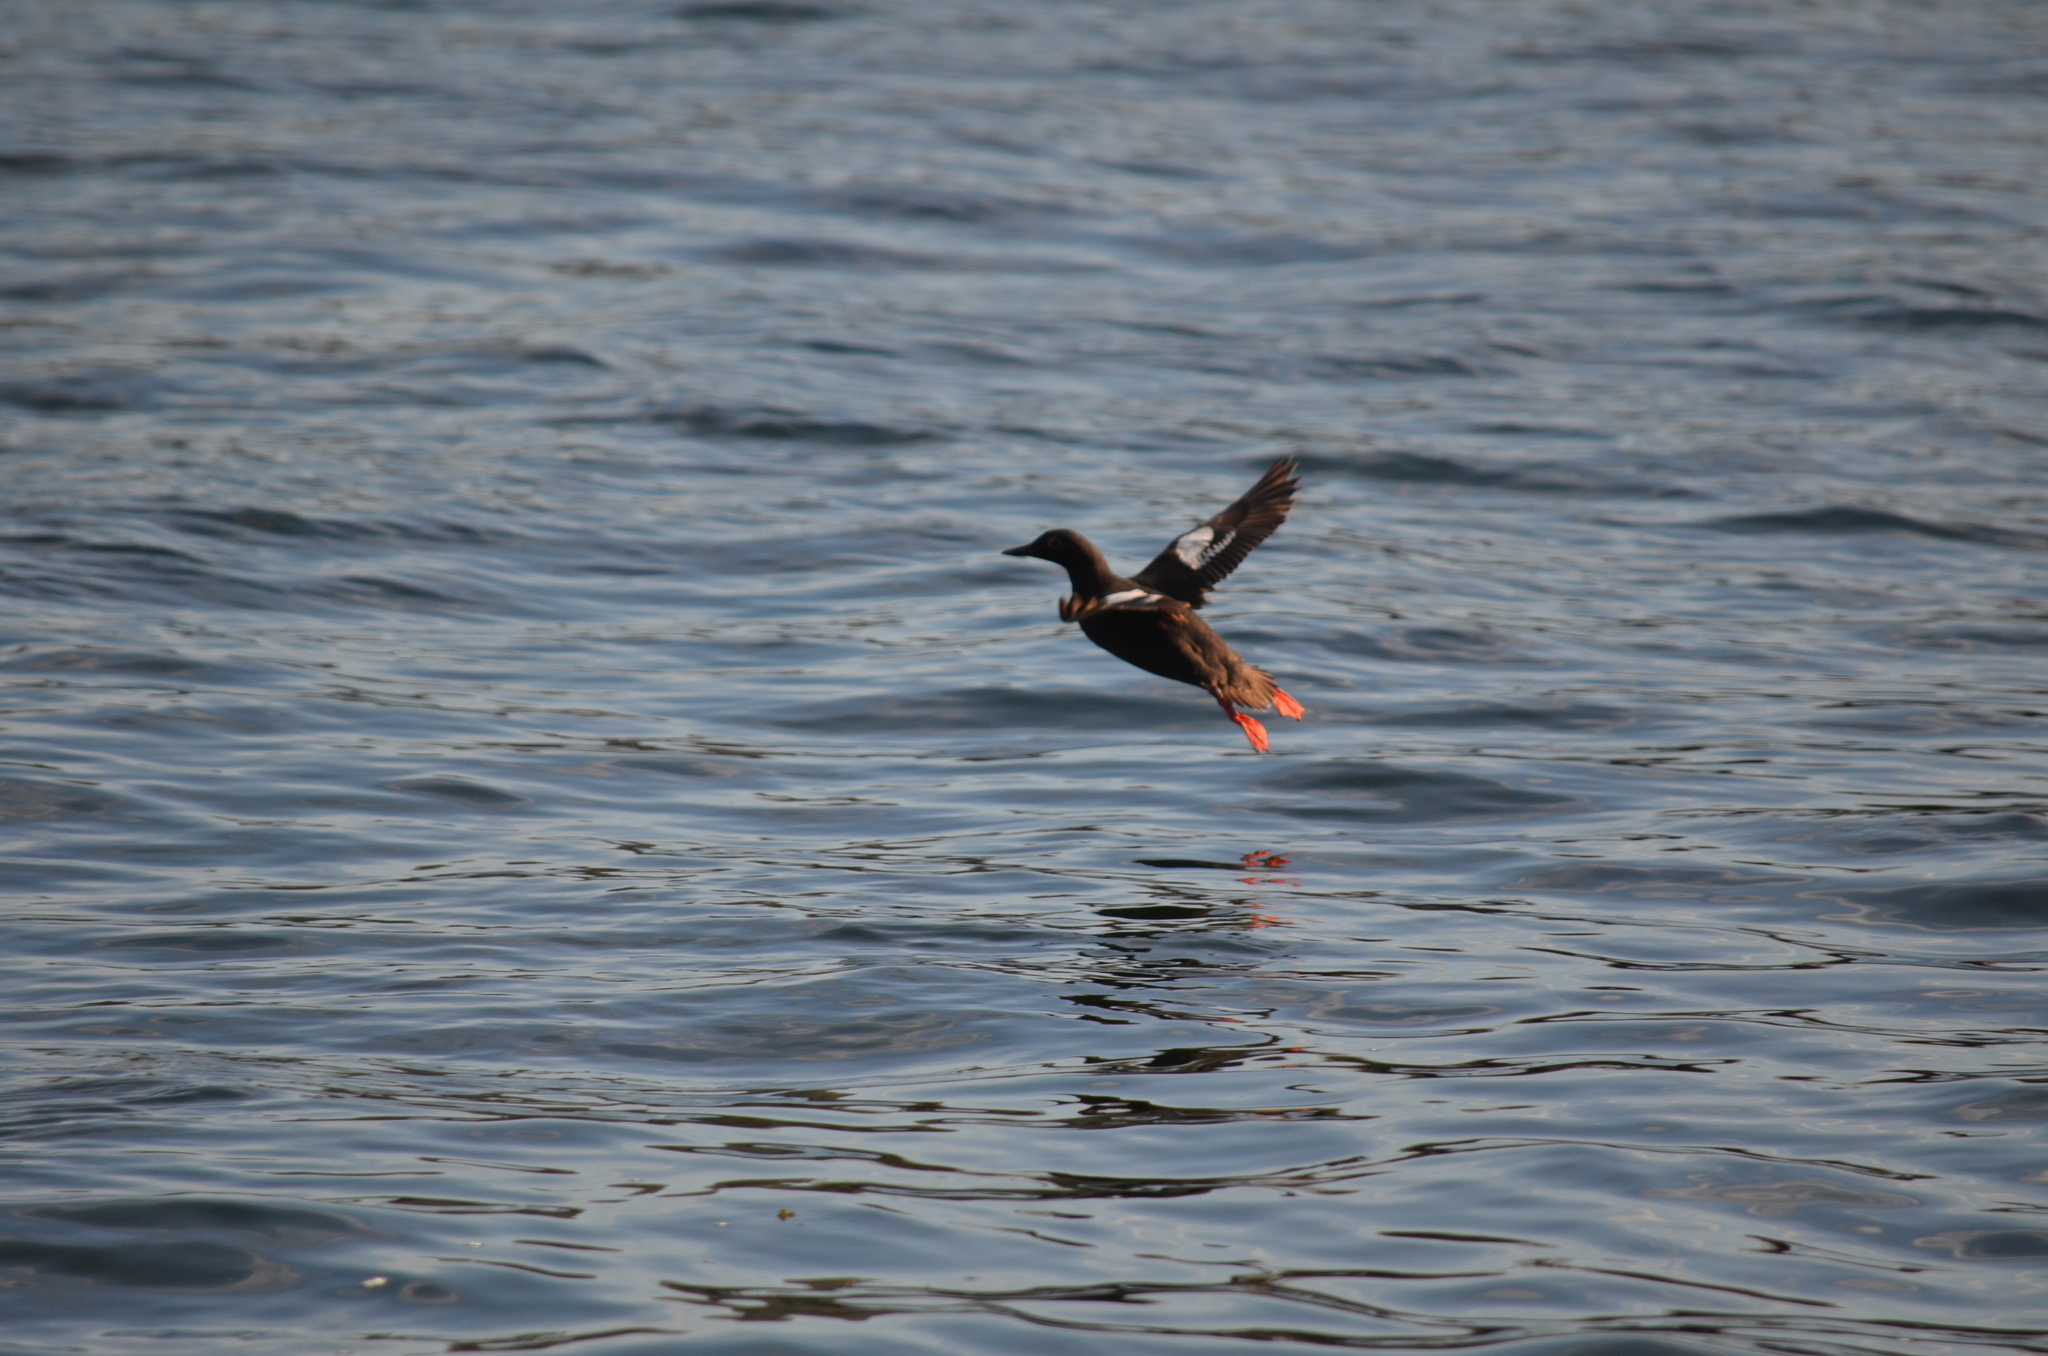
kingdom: Animalia
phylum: Chordata
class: Aves
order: Charadriiformes
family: Alcidae
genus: Cepphus
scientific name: Cepphus columba
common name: Pigeon guillemot
